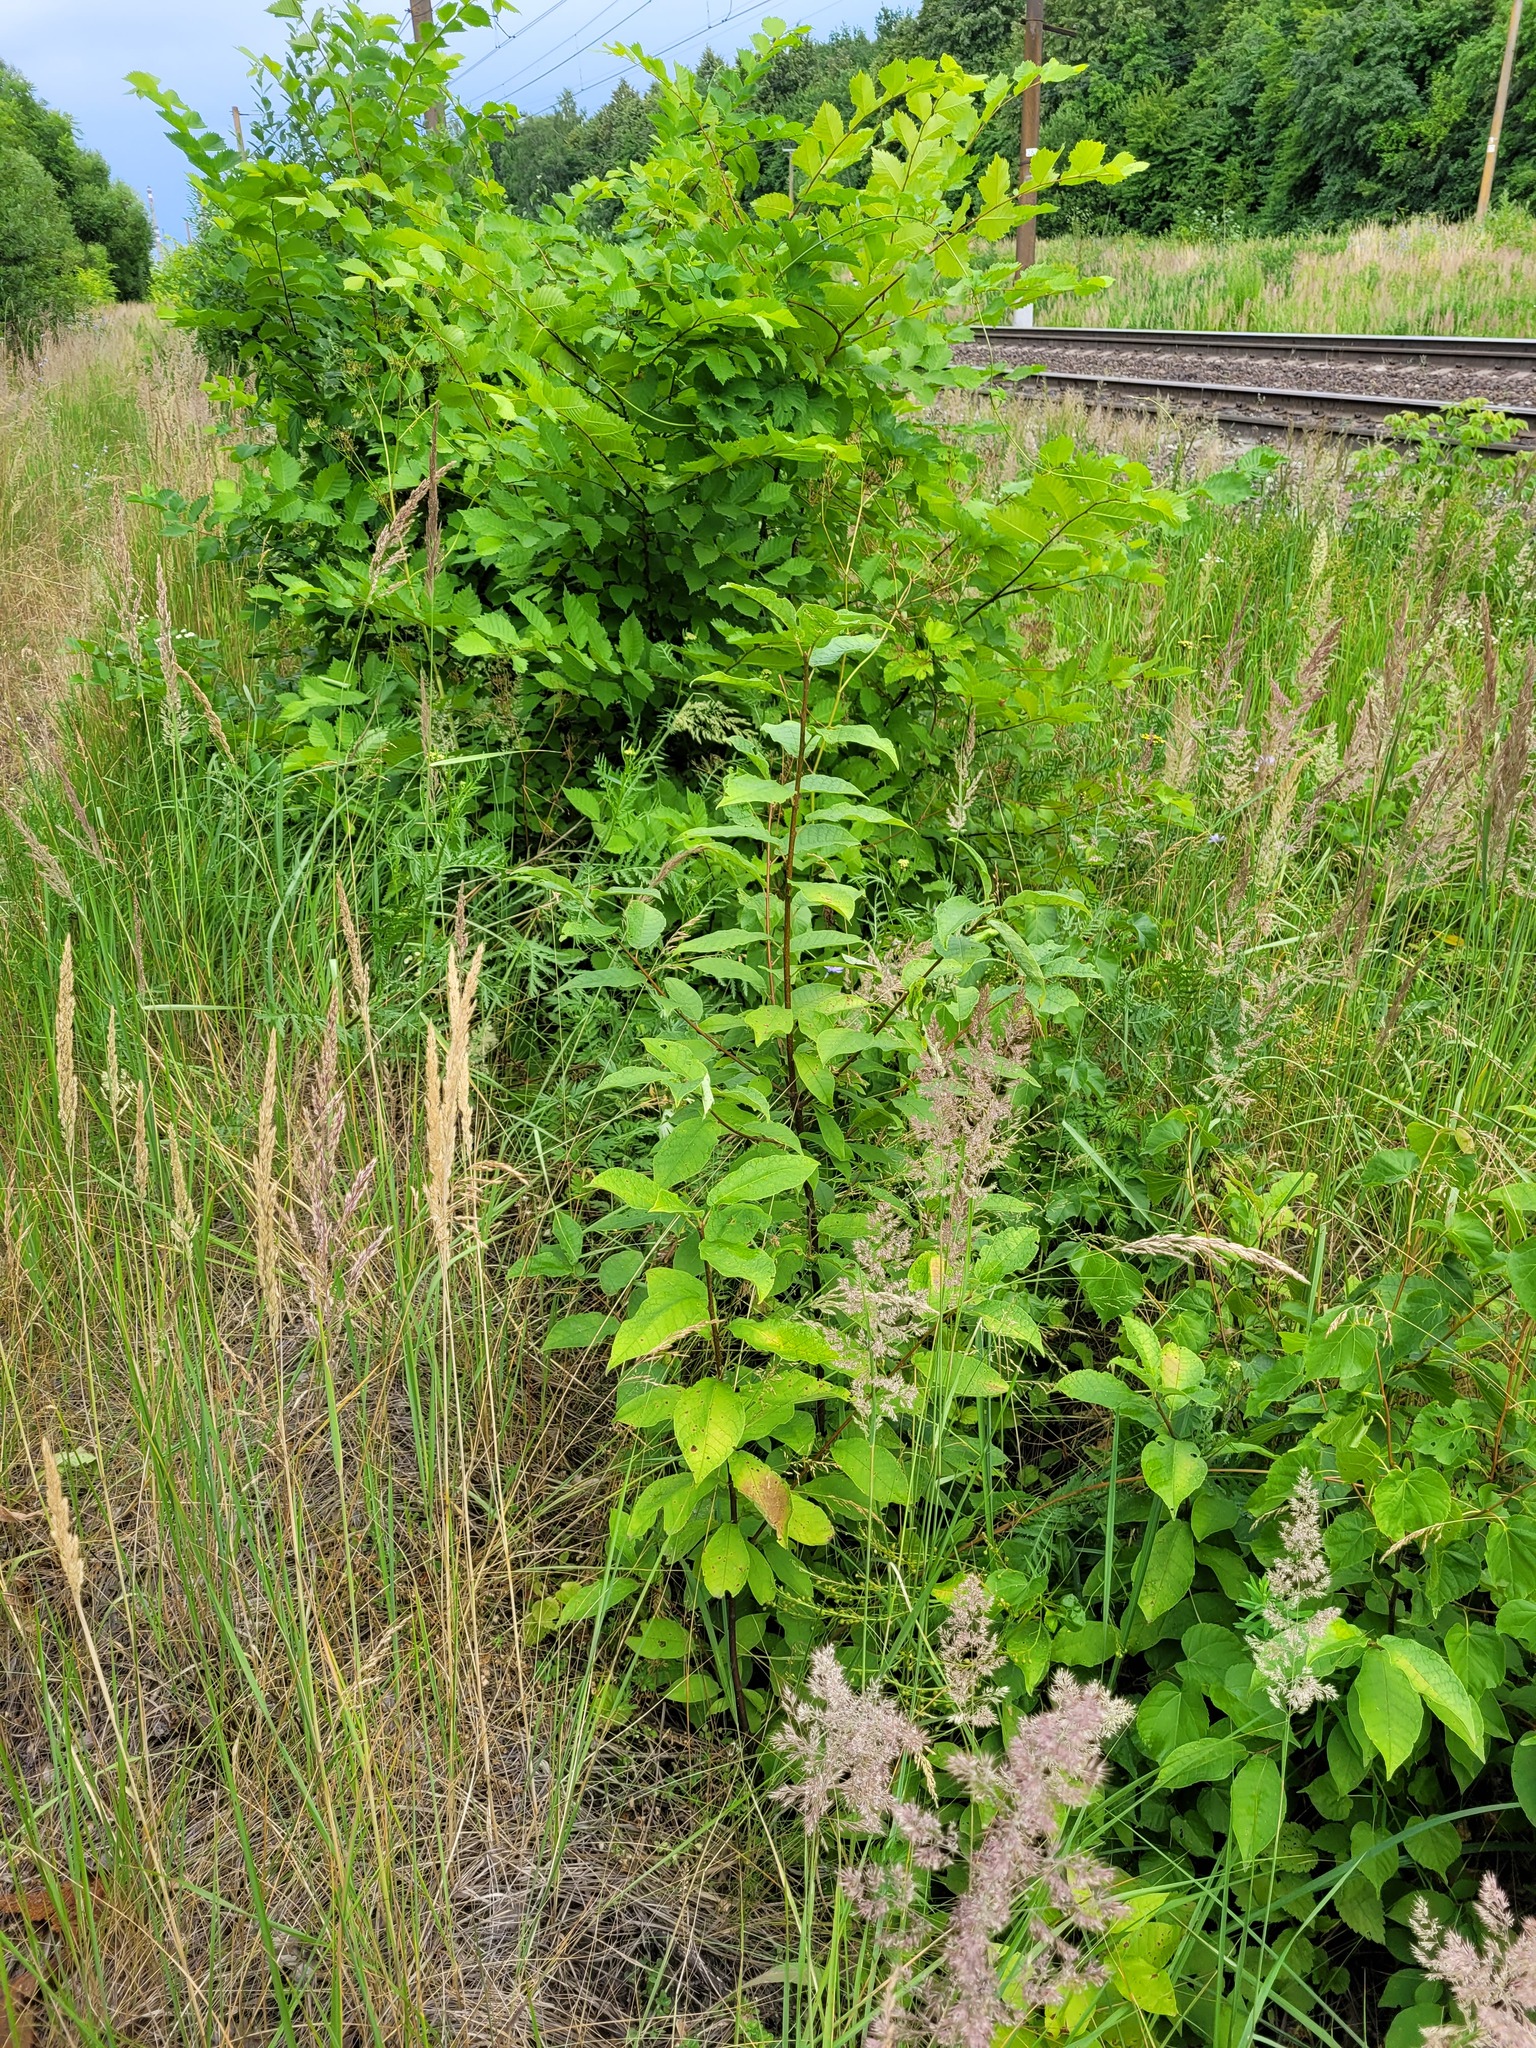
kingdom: Plantae
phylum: Tracheophyta
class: Magnoliopsida
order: Rosales
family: Rosaceae
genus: Prunus
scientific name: Prunus padus
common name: Bird cherry
